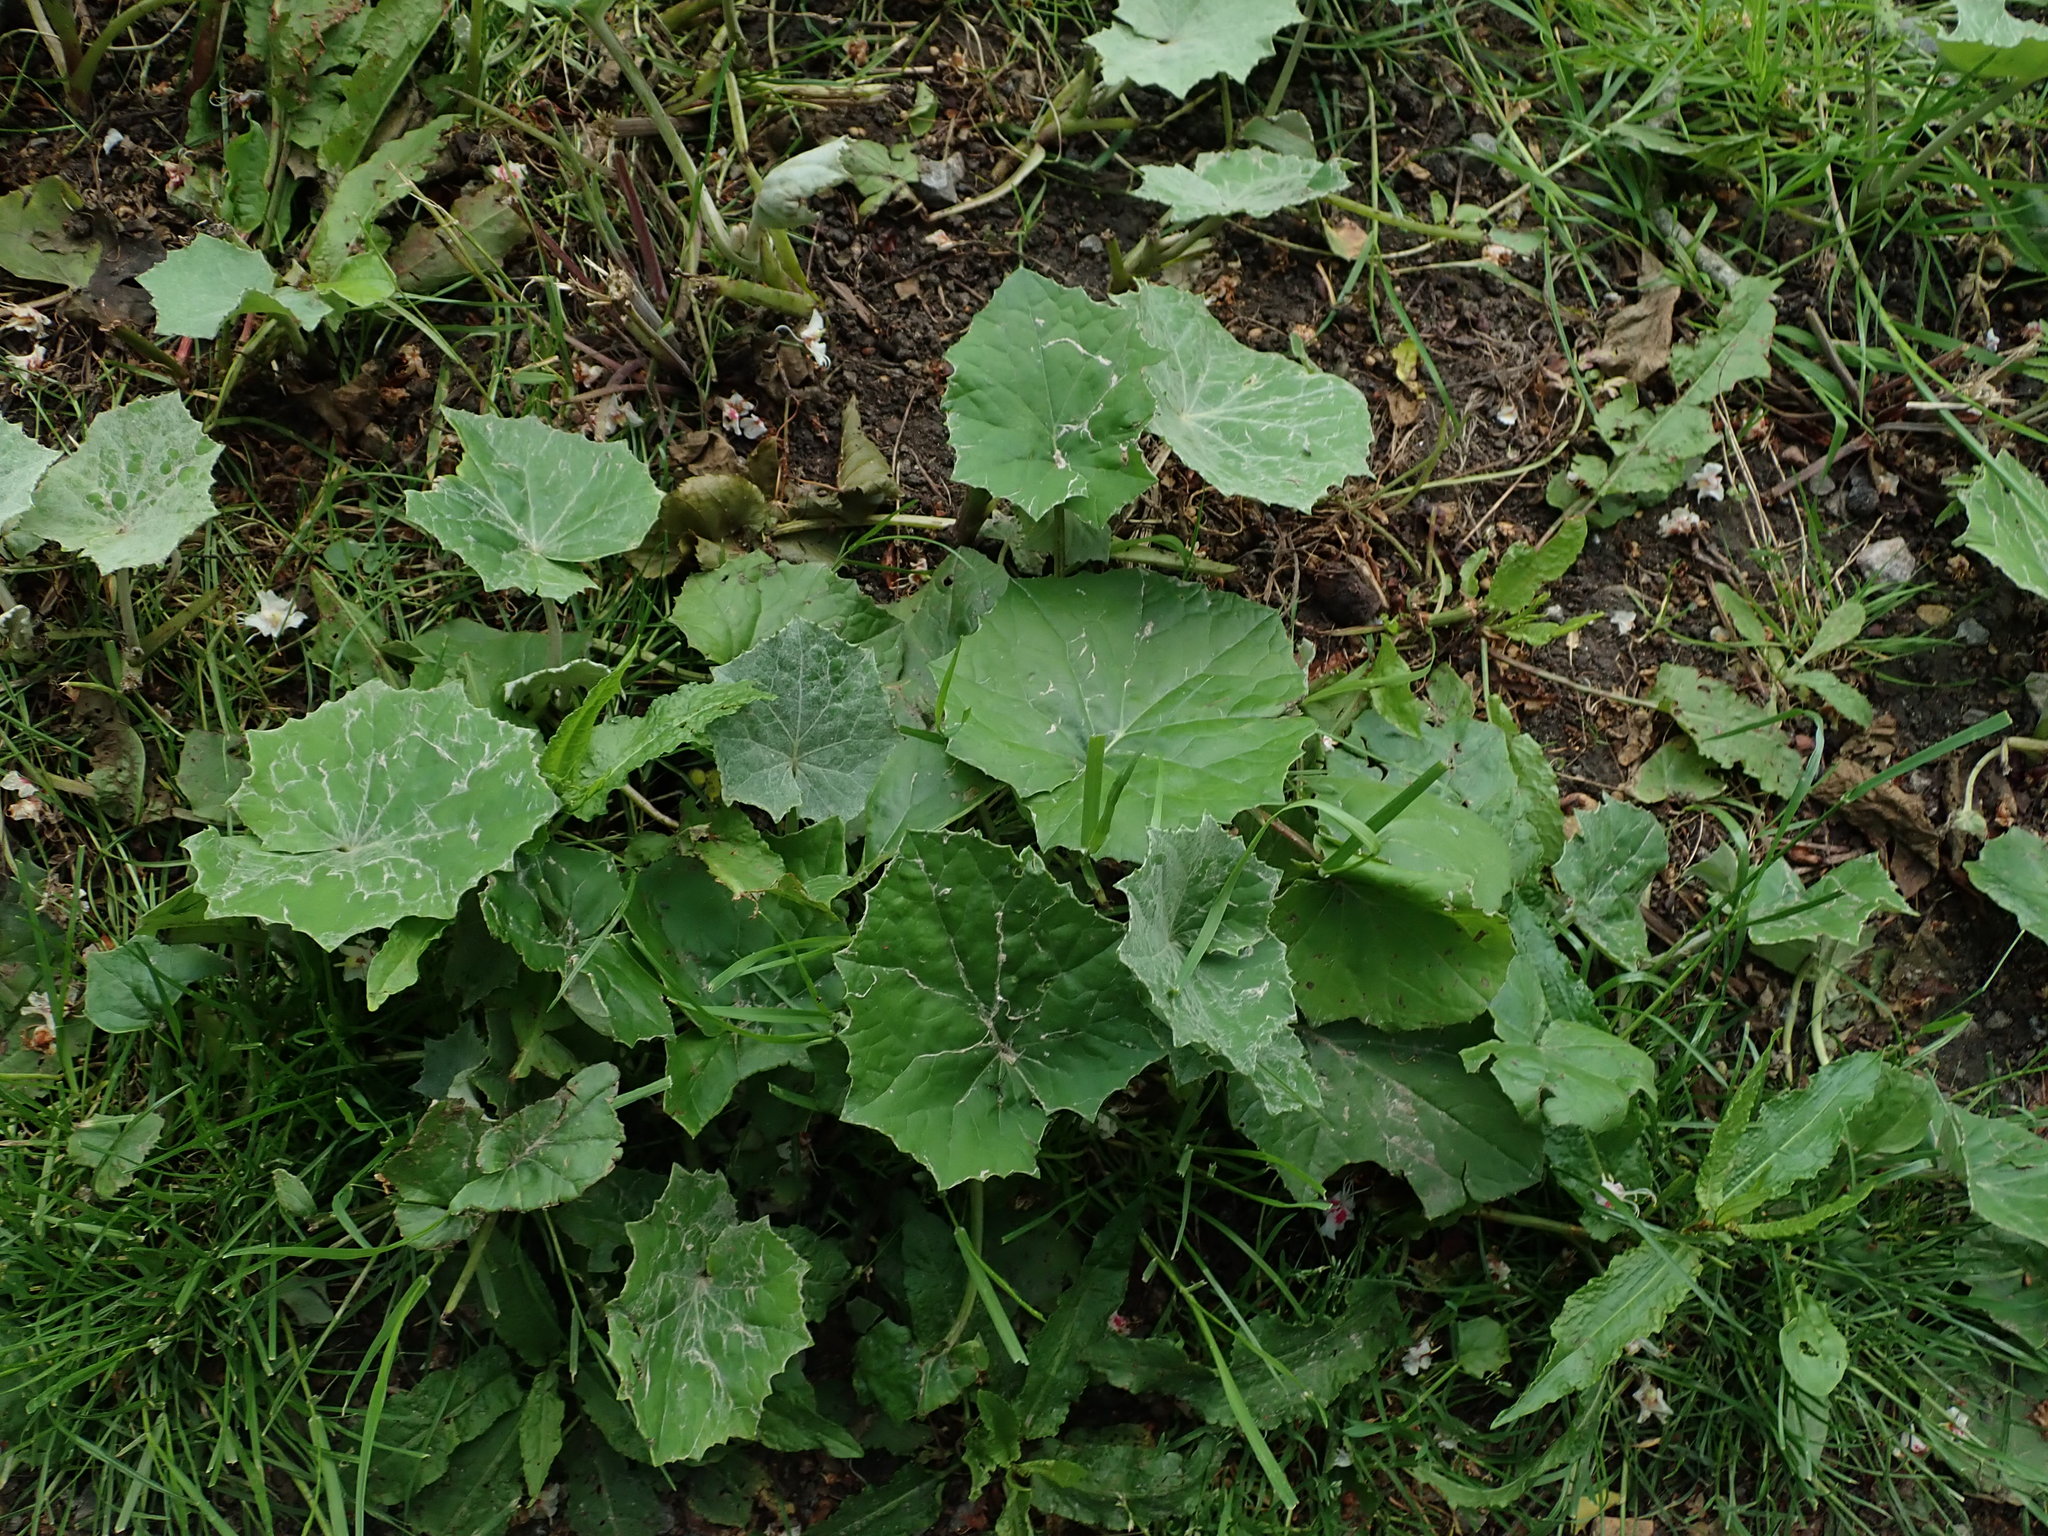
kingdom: Plantae
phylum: Tracheophyta
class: Magnoliopsida
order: Asterales
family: Asteraceae
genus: Tussilago
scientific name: Tussilago farfara
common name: Coltsfoot
